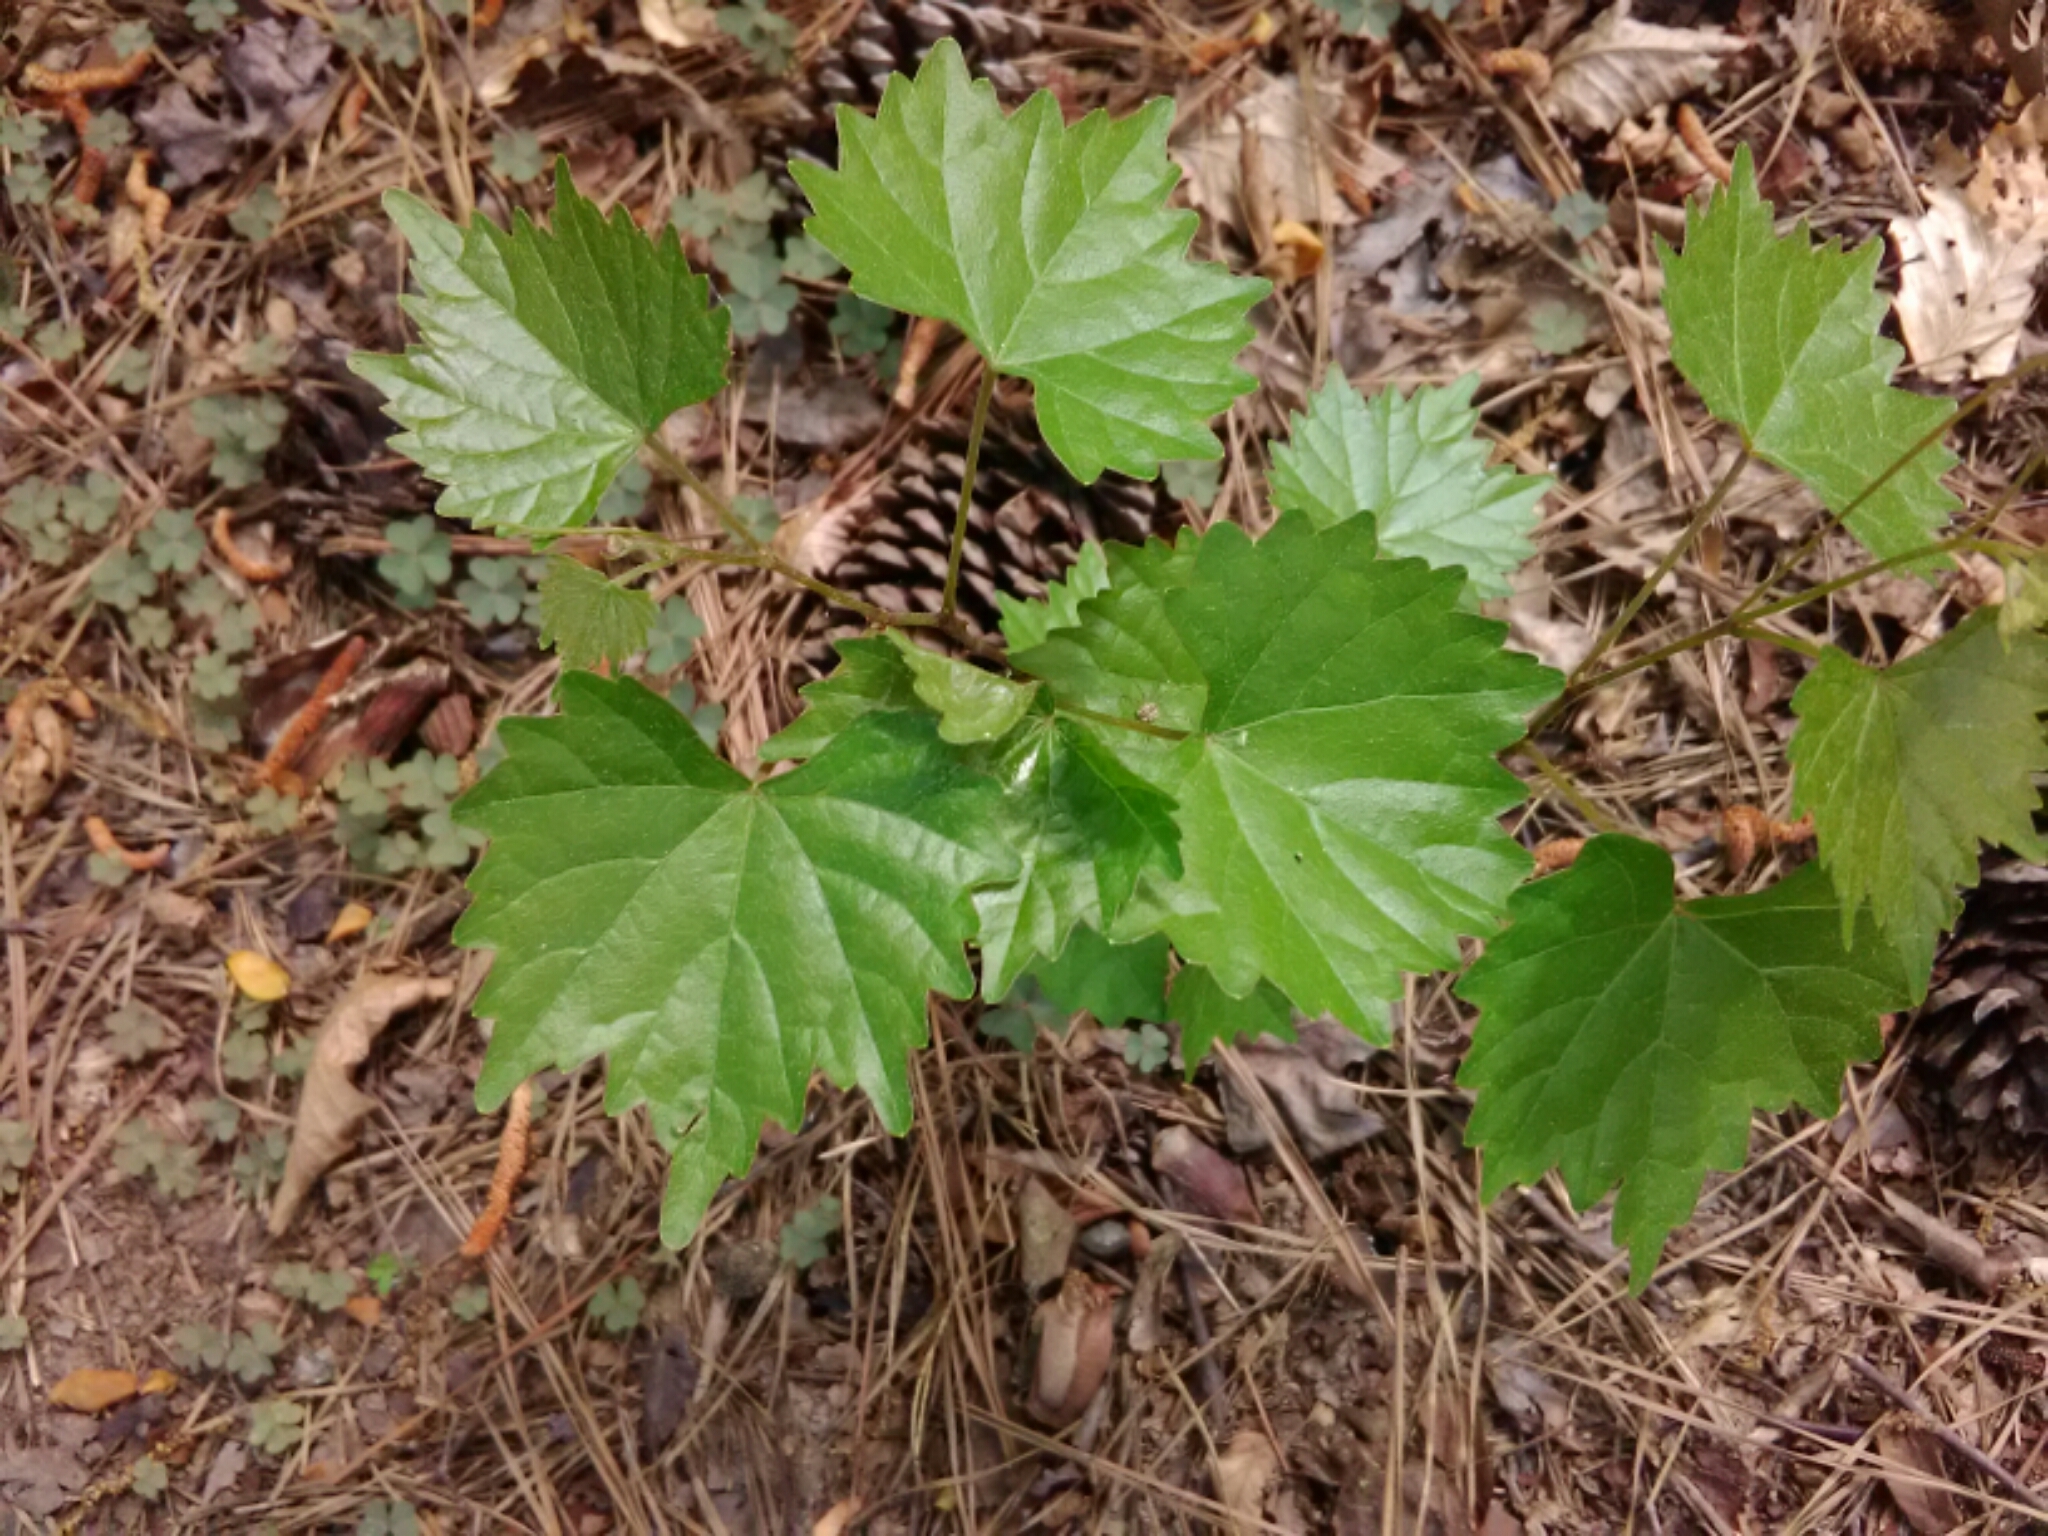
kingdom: Plantae
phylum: Tracheophyta
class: Magnoliopsida
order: Vitales
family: Vitaceae
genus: Vitis
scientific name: Vitis rotundifolia
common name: Muscadine grape
